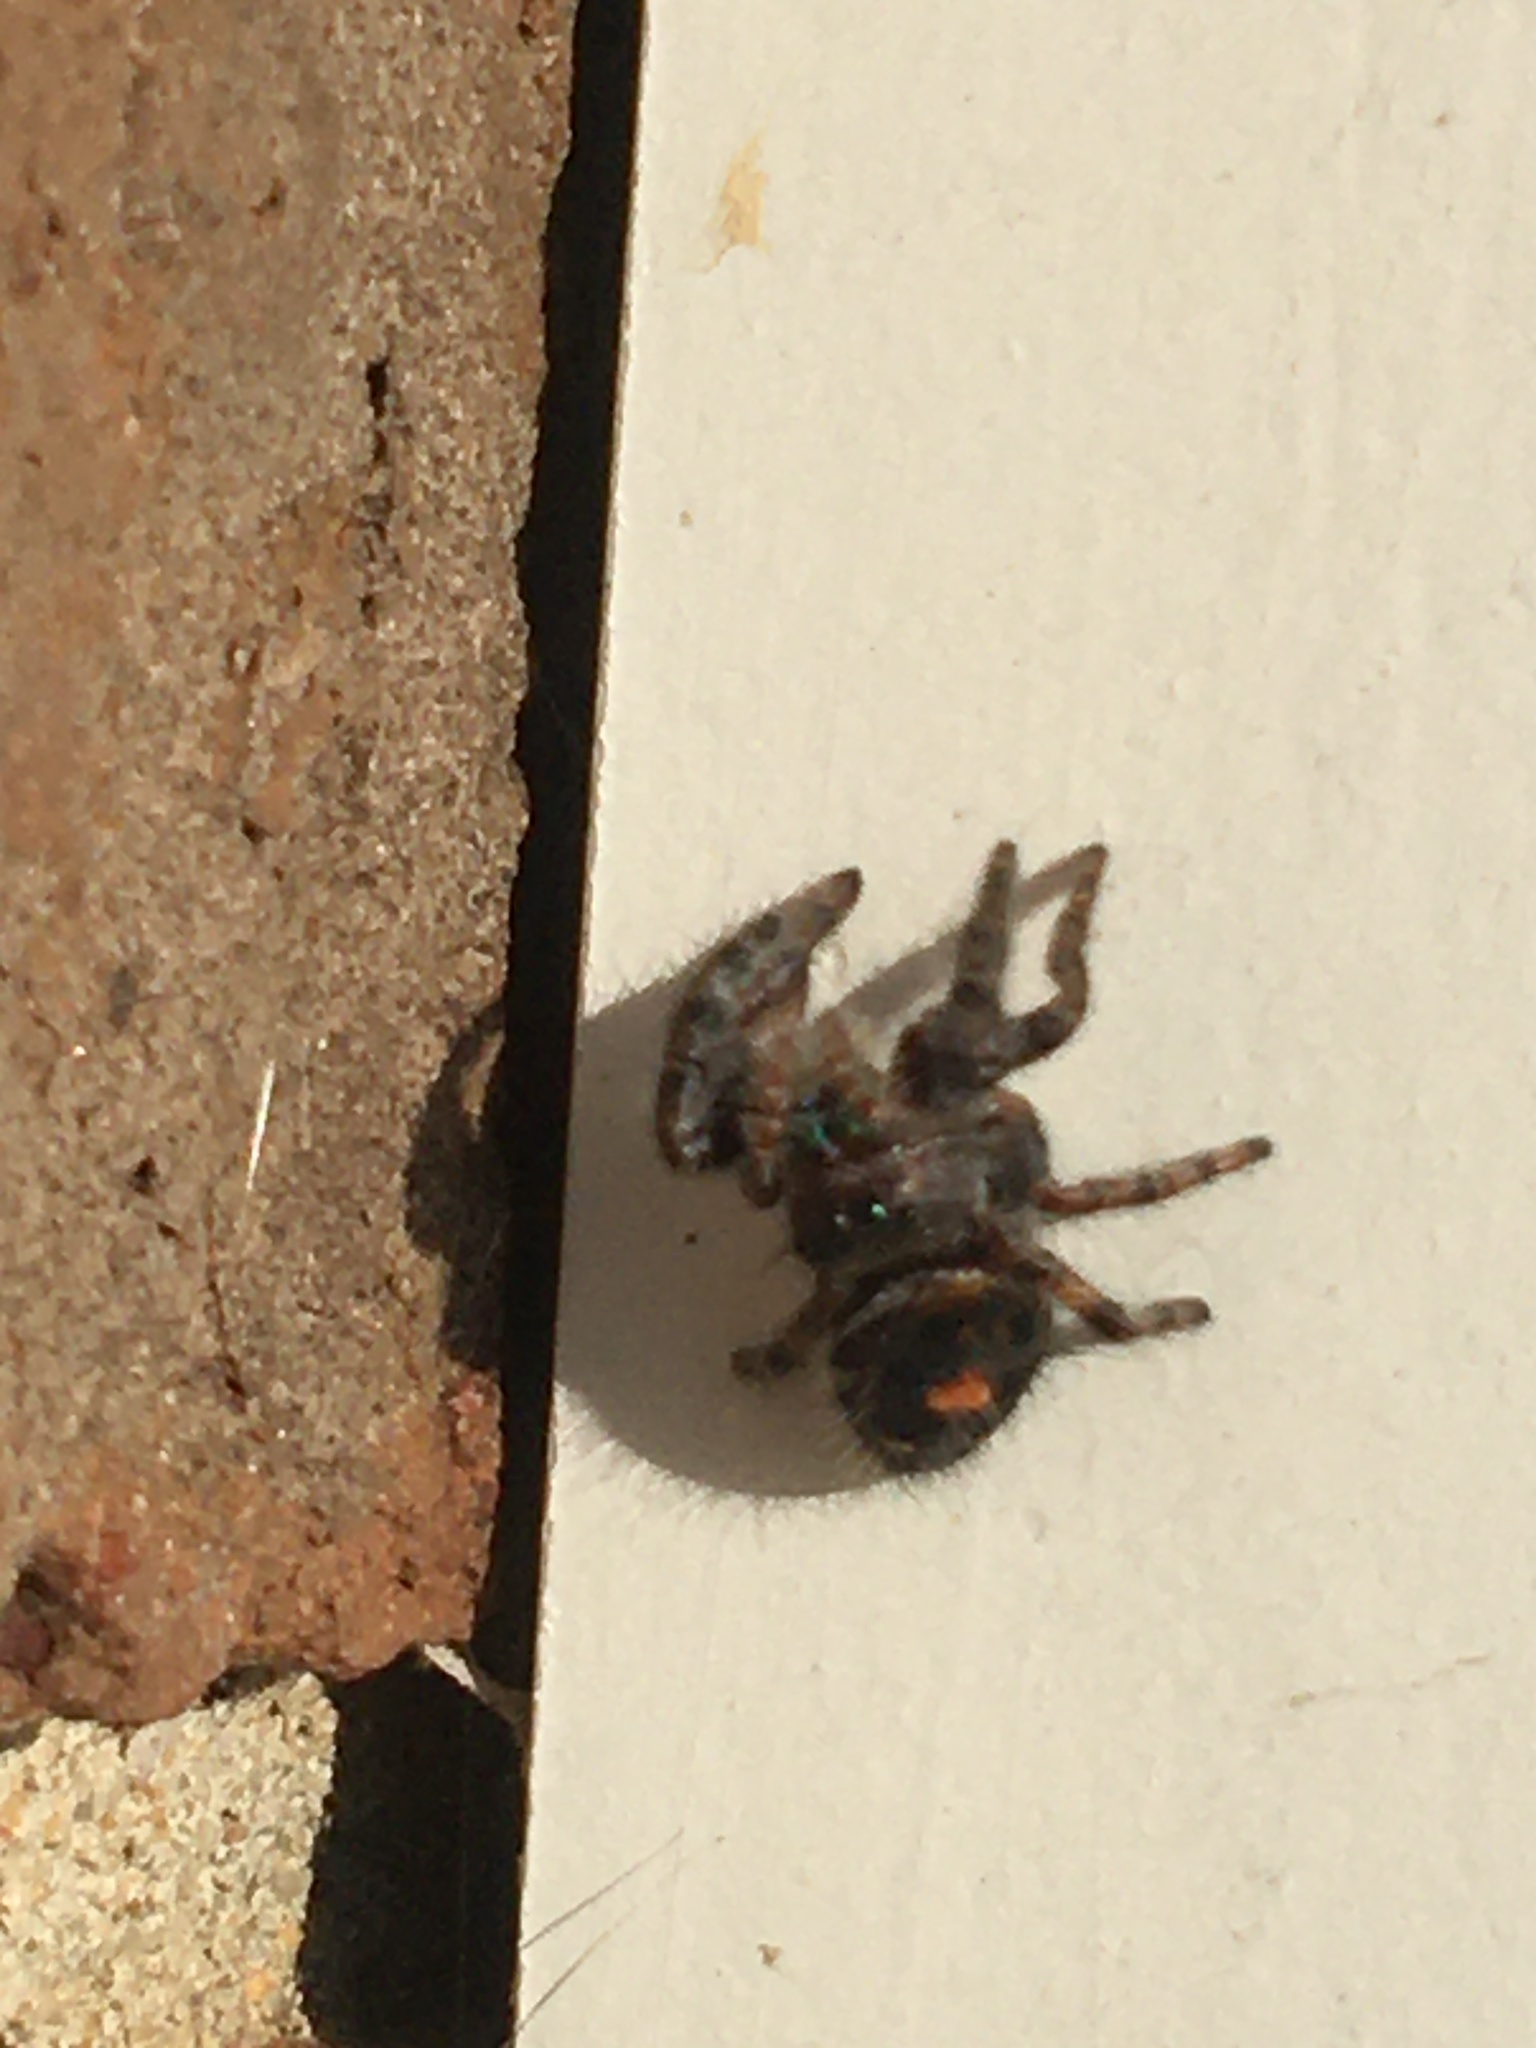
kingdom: Animalia
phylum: Arthropoda
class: Arachnida
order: Araneae
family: Salticidae
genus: Phidippus
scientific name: Phidippus audax
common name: Bold jumper
